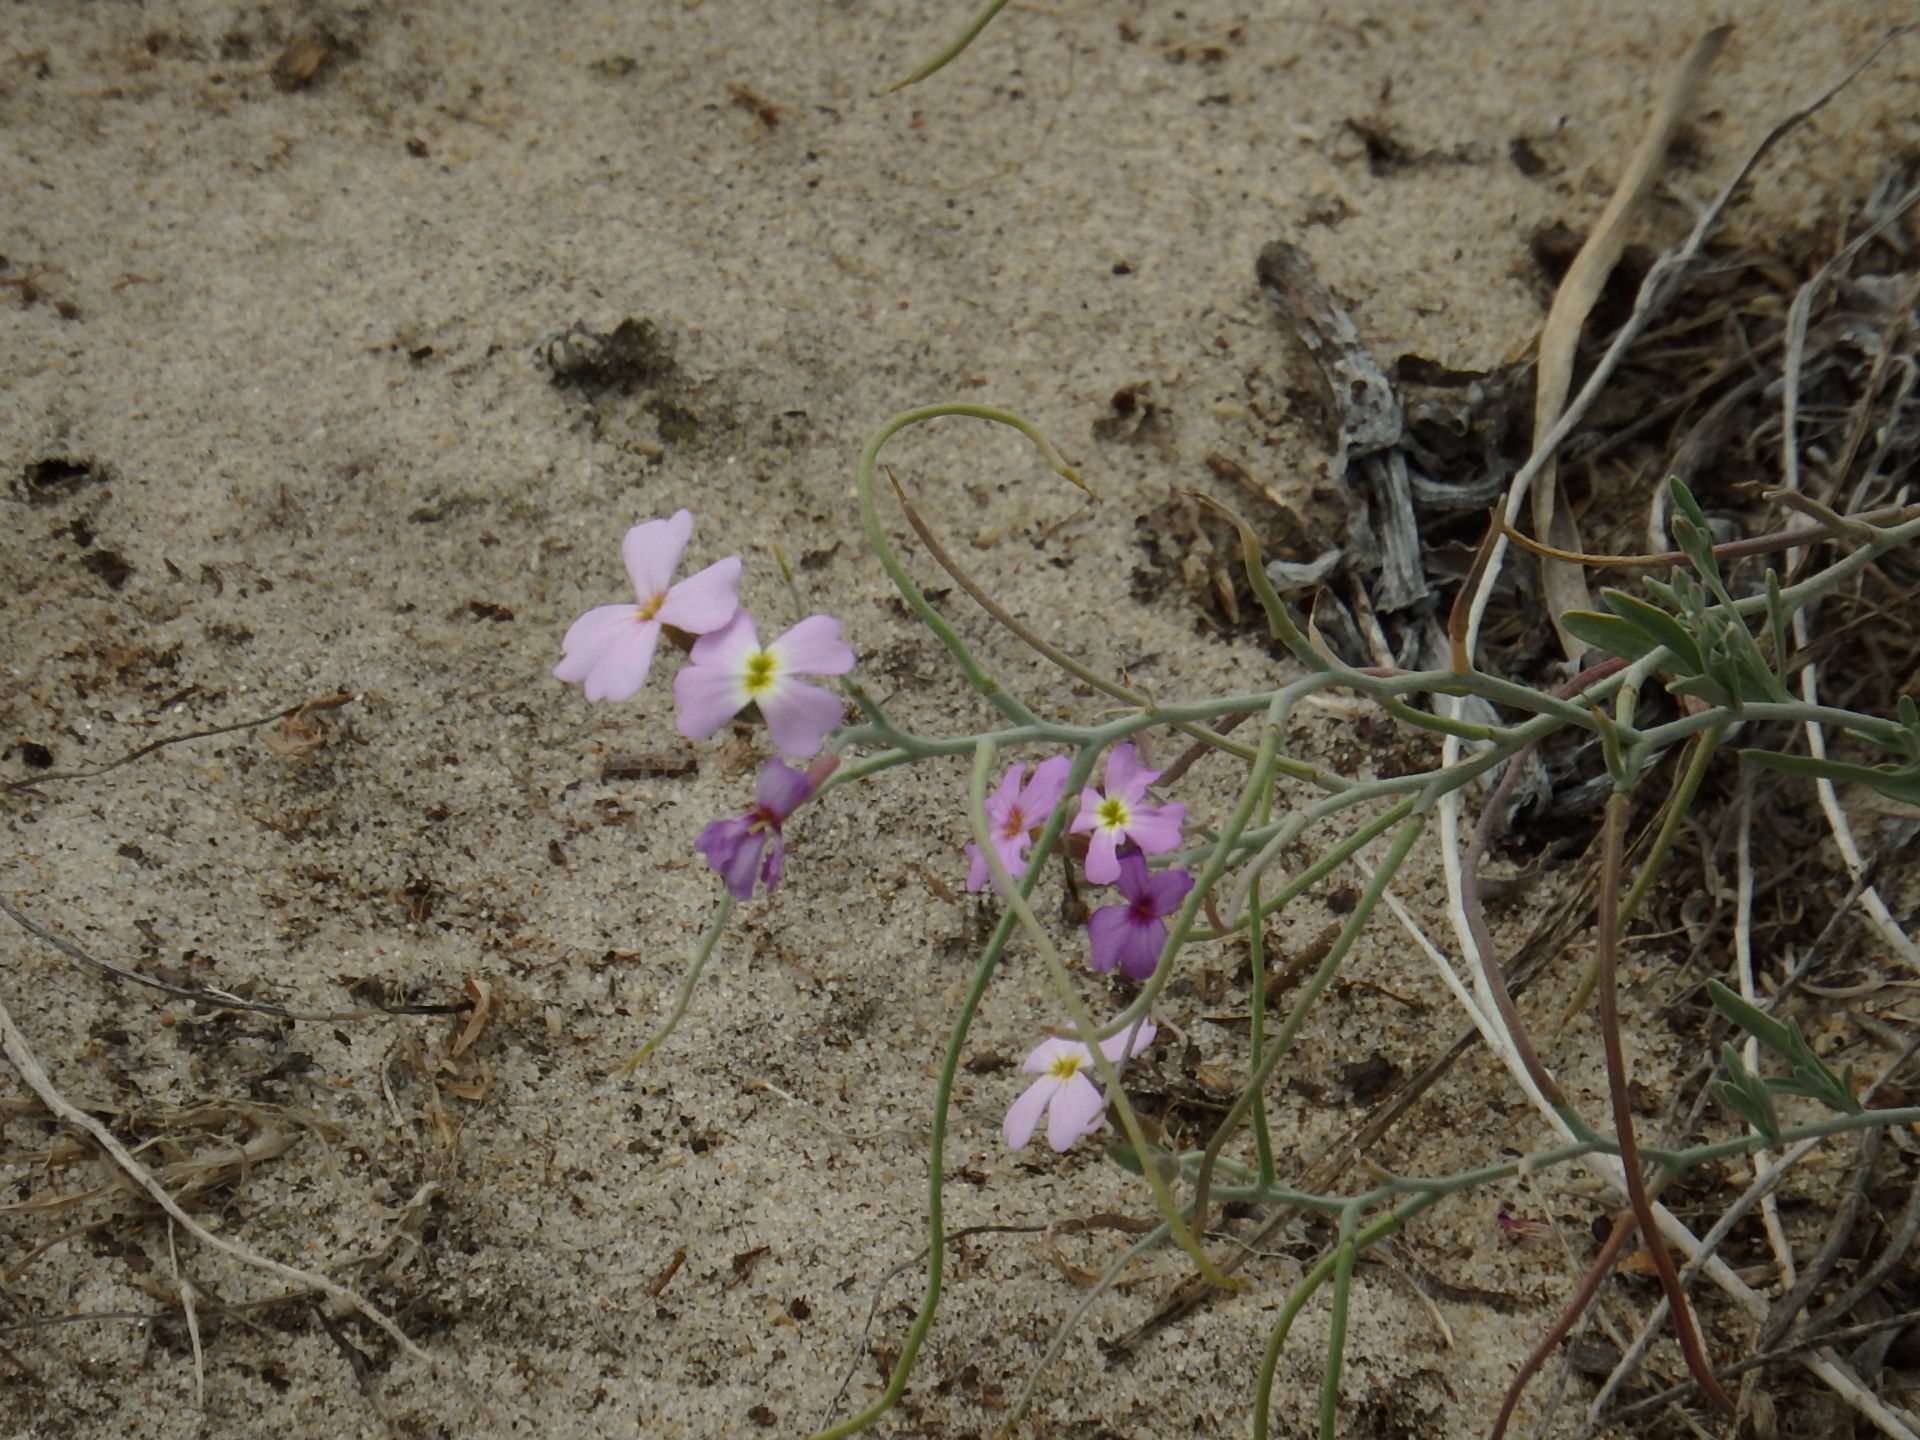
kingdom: Plantae
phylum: Tracheophyta
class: Magnoliopsida
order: Brassicales
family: Brassicaceae
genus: Marcuskochia
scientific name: Marcuskochia littorea
